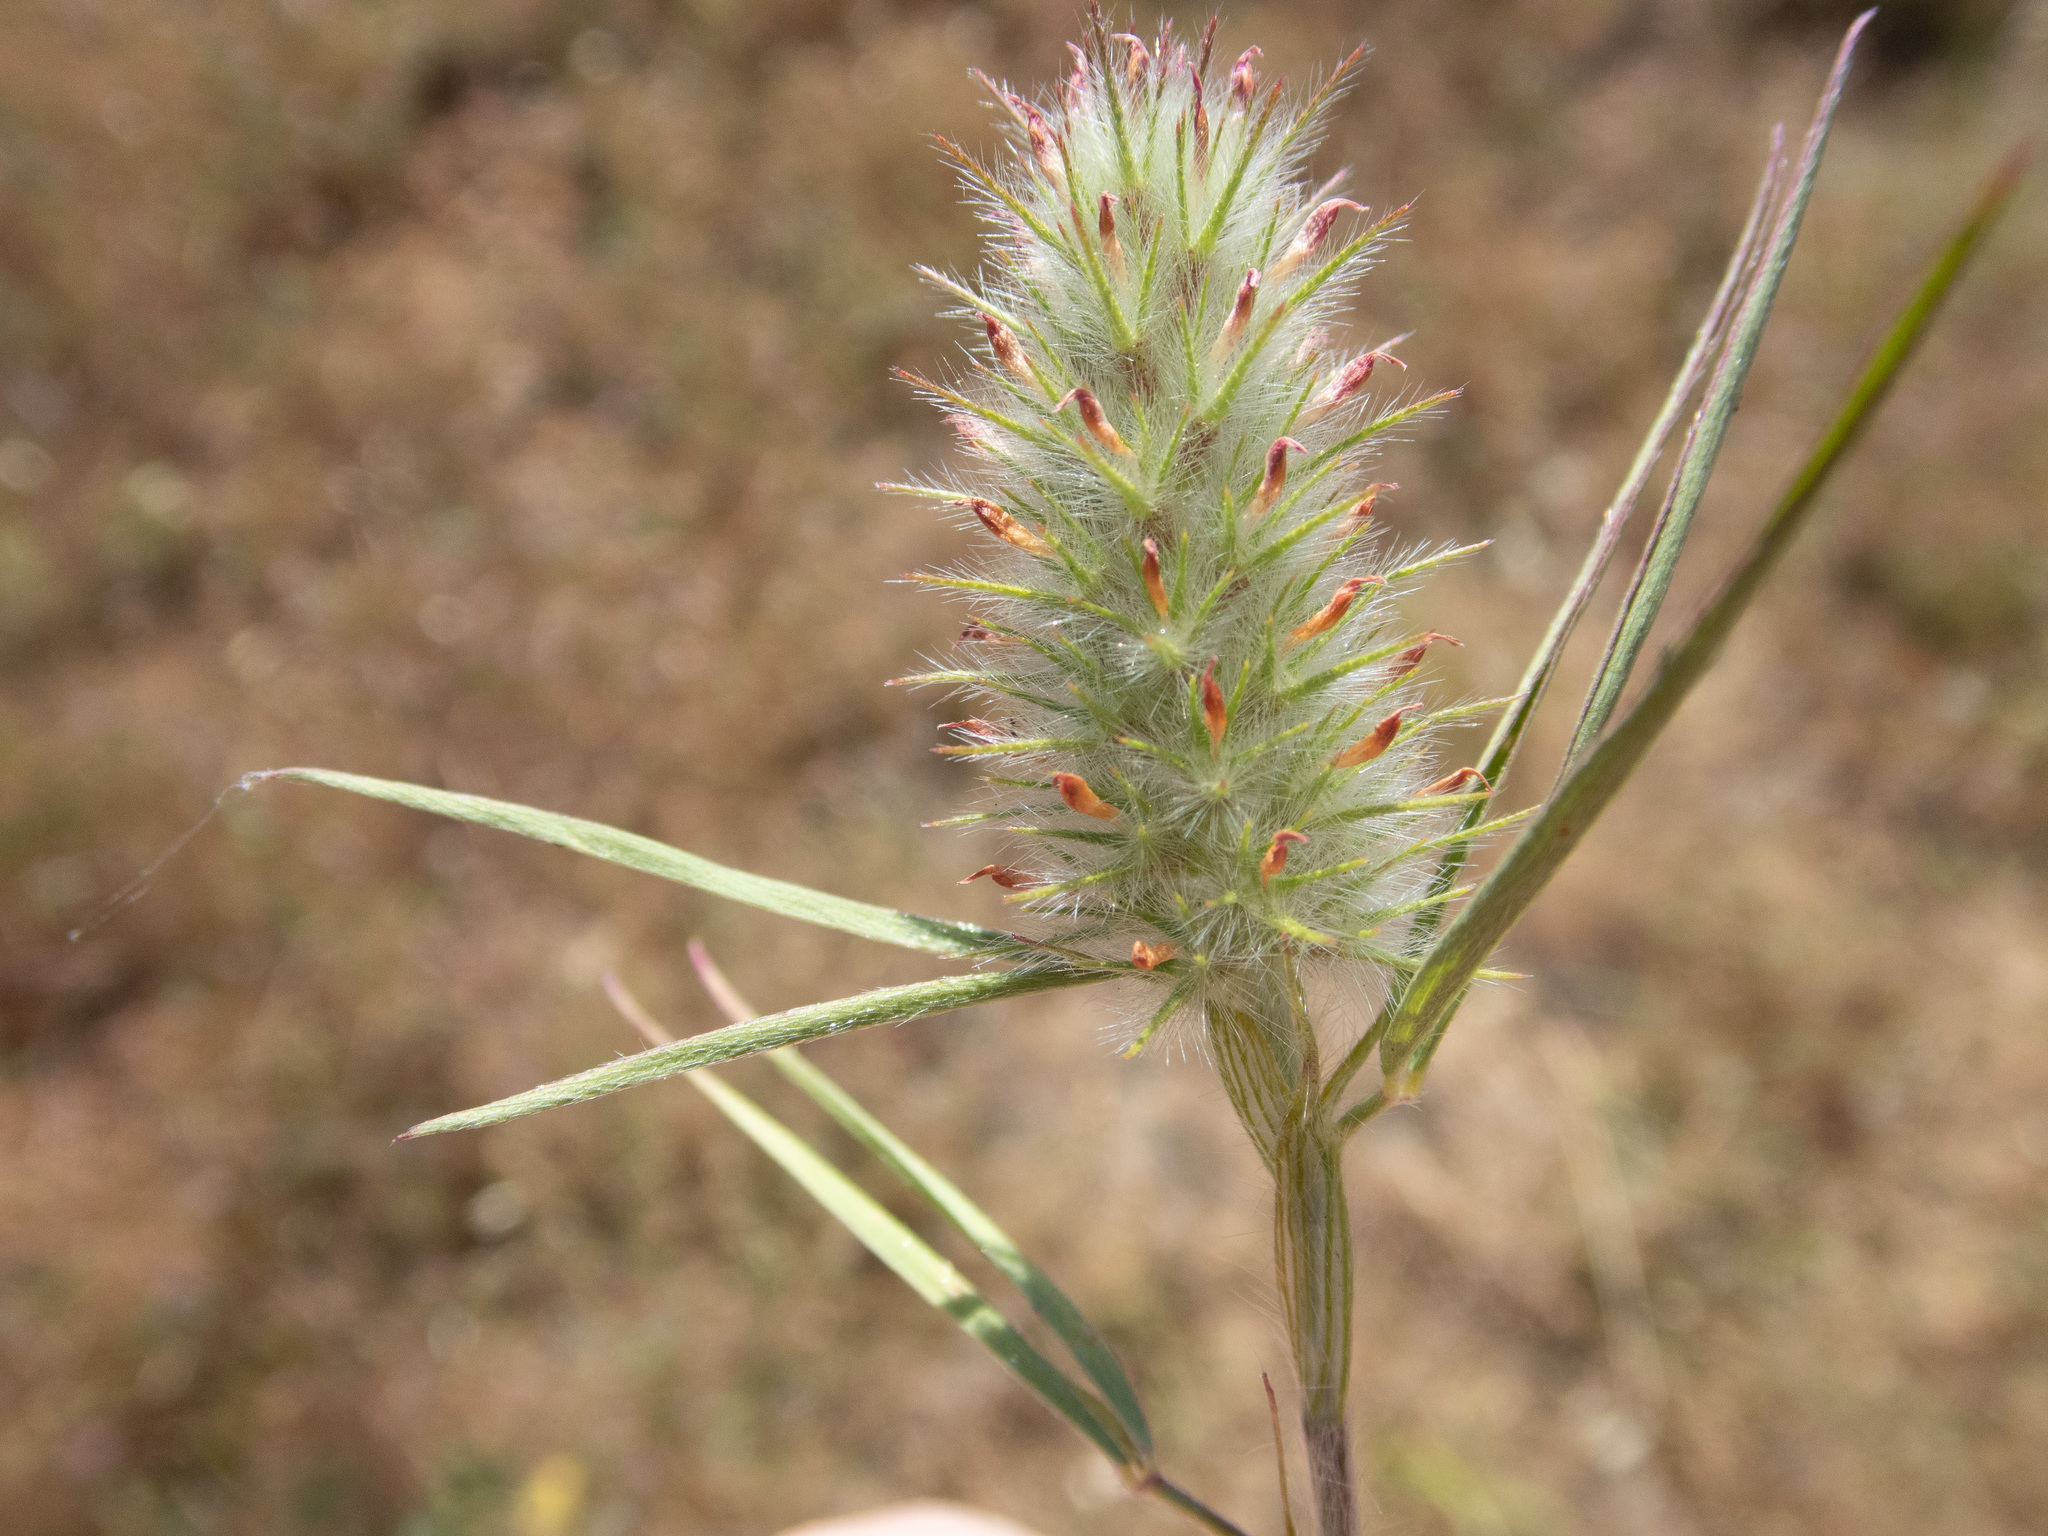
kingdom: Plantae
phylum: Tracheophyta
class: Magnoliopsida
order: Fabales
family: Fabaceae
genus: Trifolium
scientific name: Trifolium angustifolium
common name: Narrow clover
